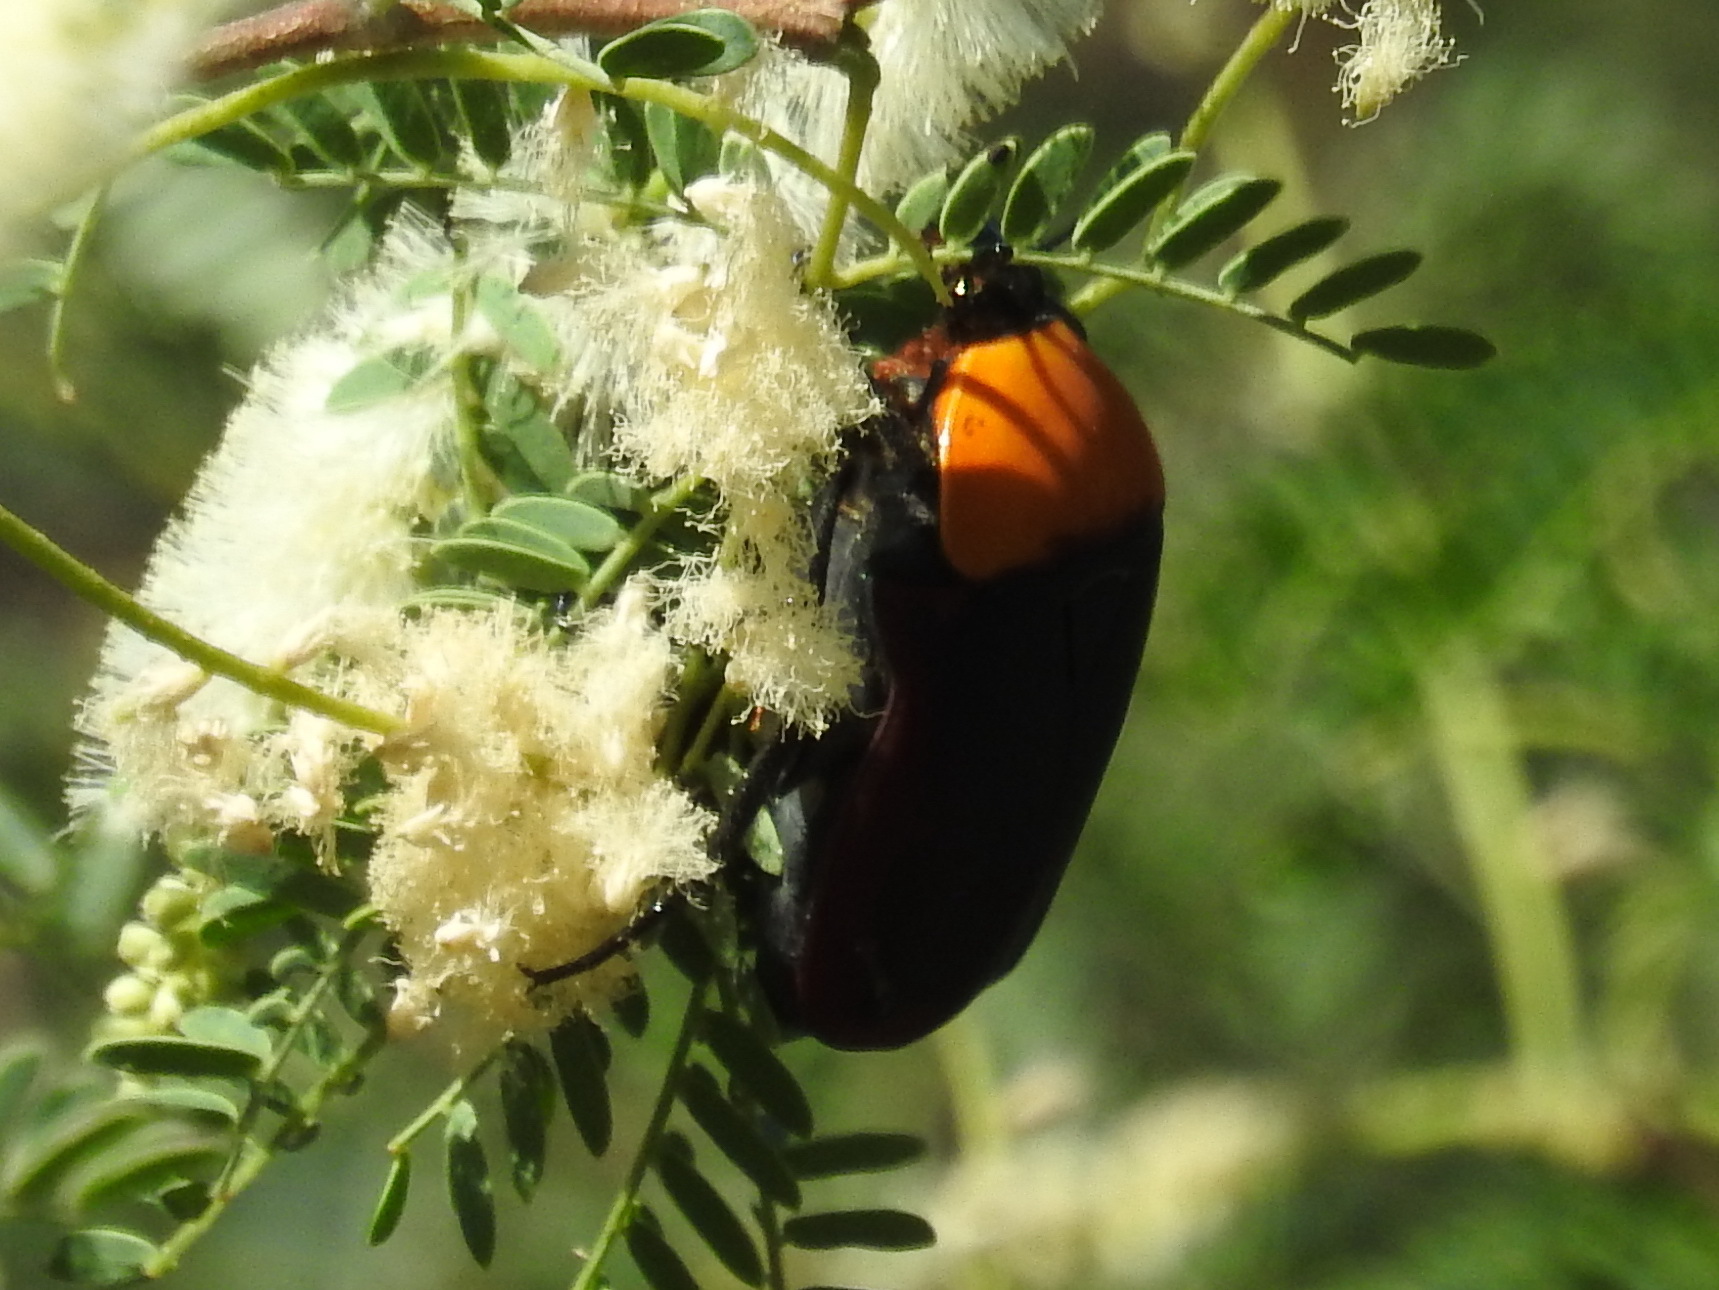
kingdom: Animalia
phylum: Arthropoda
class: Insecta
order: Coleoptera
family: Scarabaeidae
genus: Pachnoda
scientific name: Pachnoda thoracica
